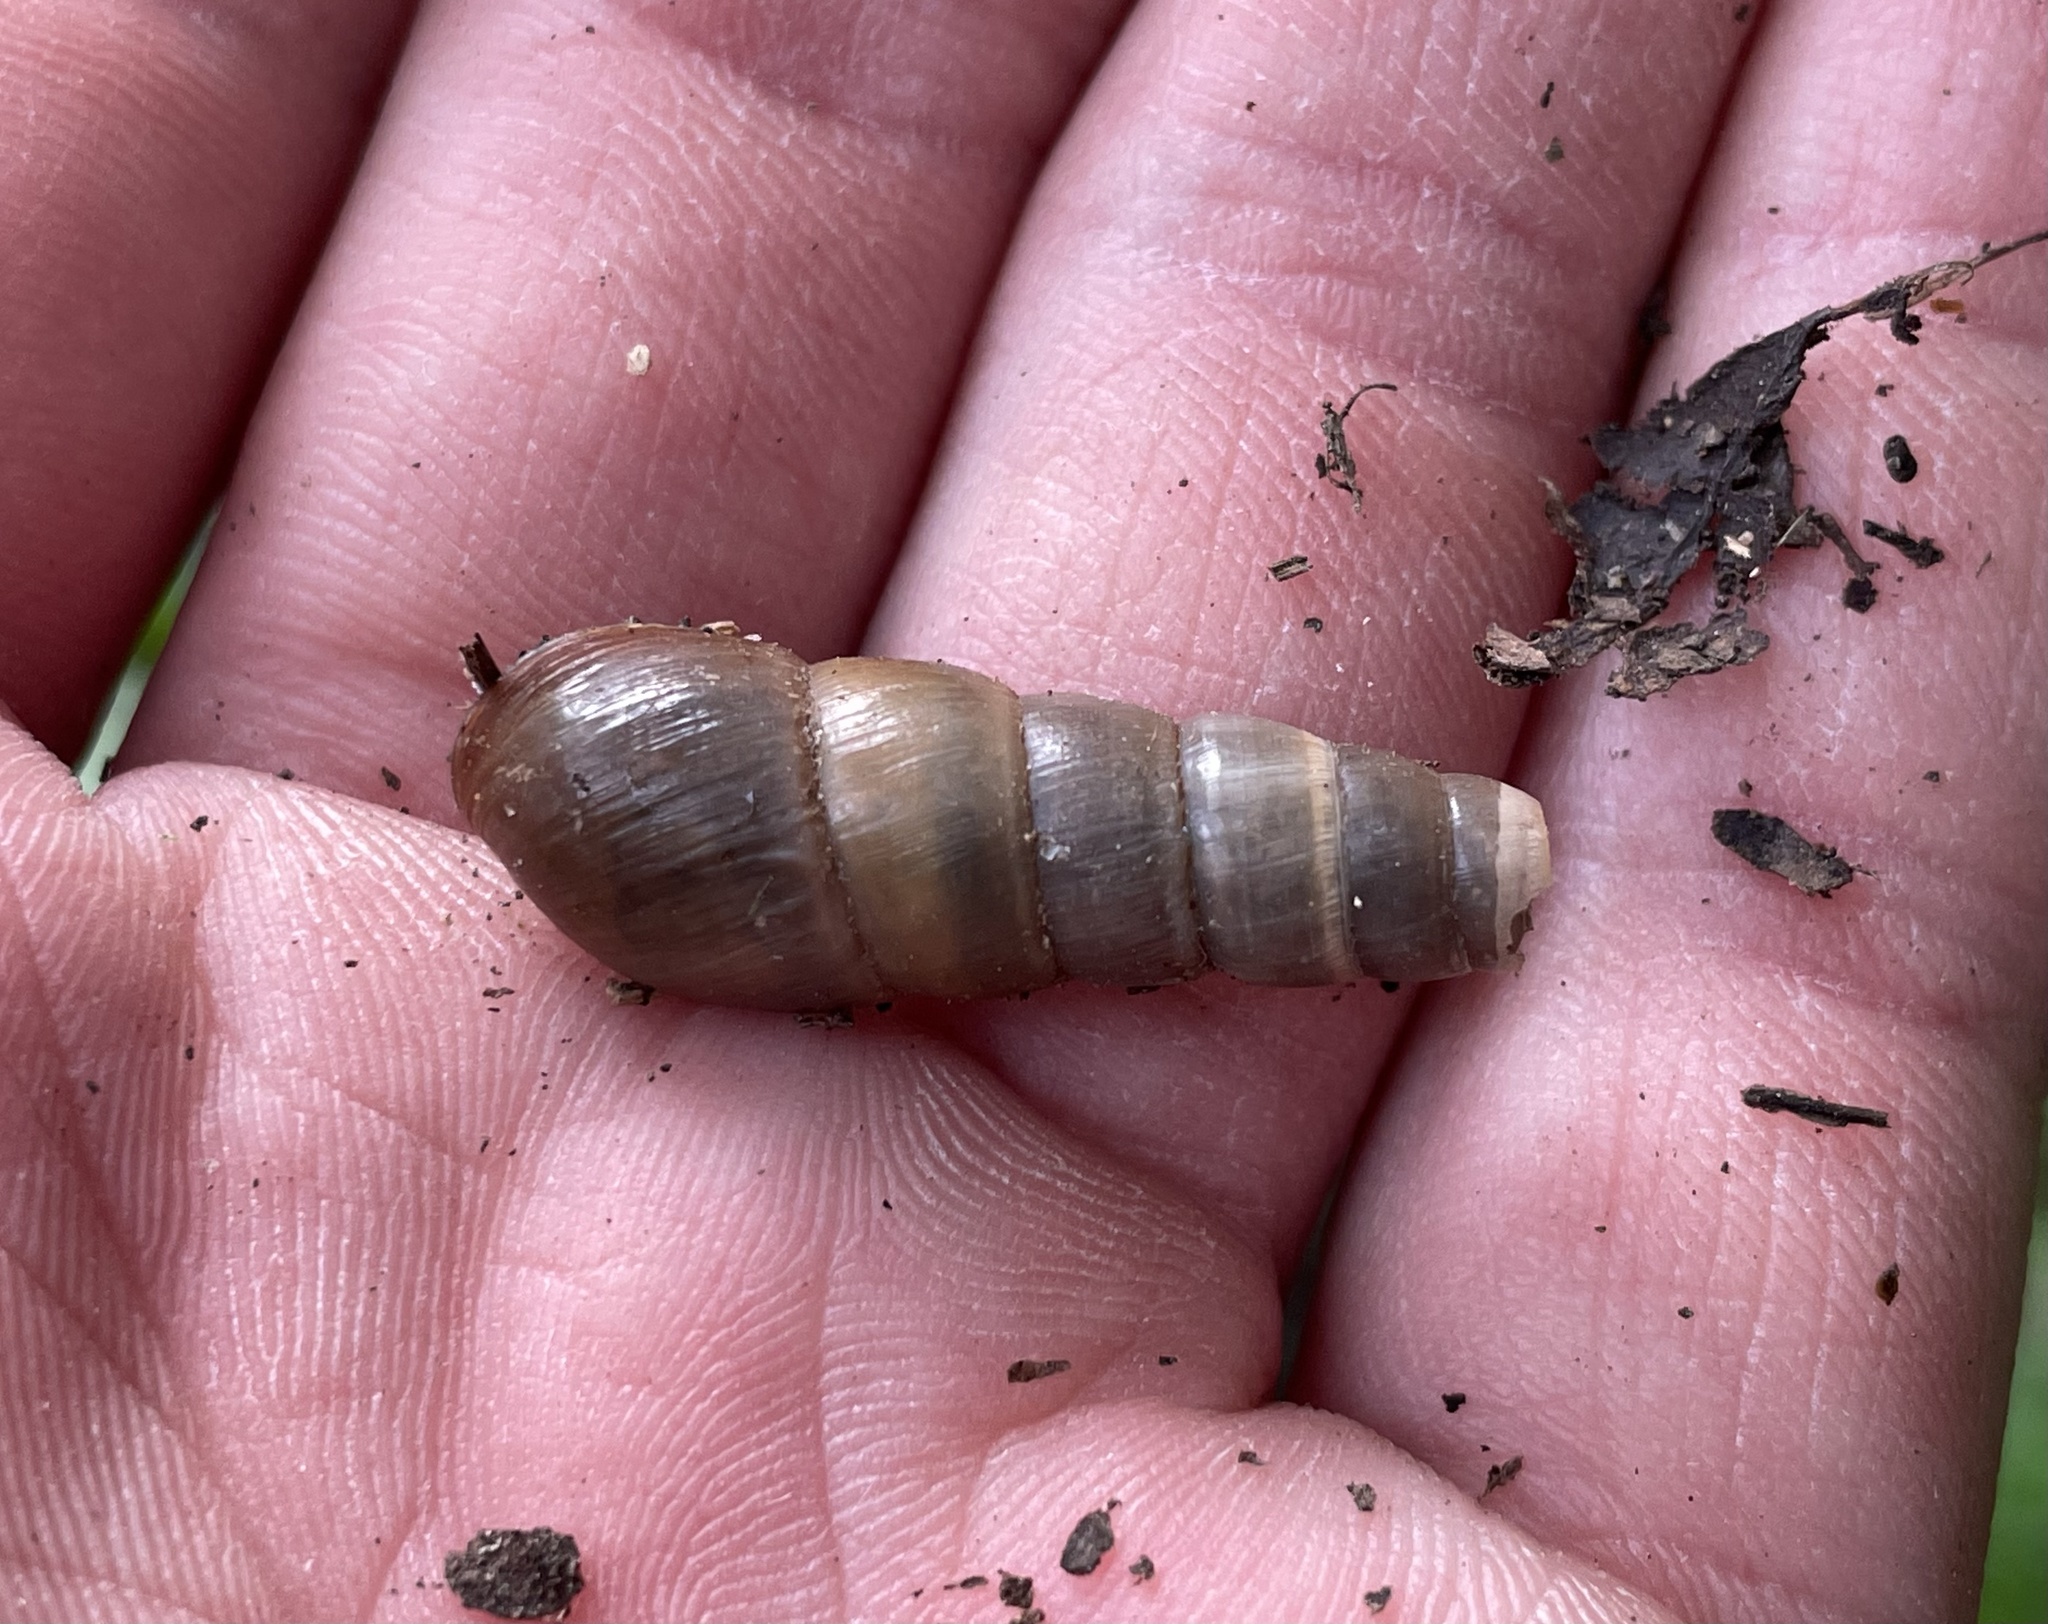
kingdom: Animalia
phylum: Mollusca
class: Gastropoda
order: Stylommatophora
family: Achatinidae
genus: Rumina
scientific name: Rumina decollata
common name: Decollate snail
